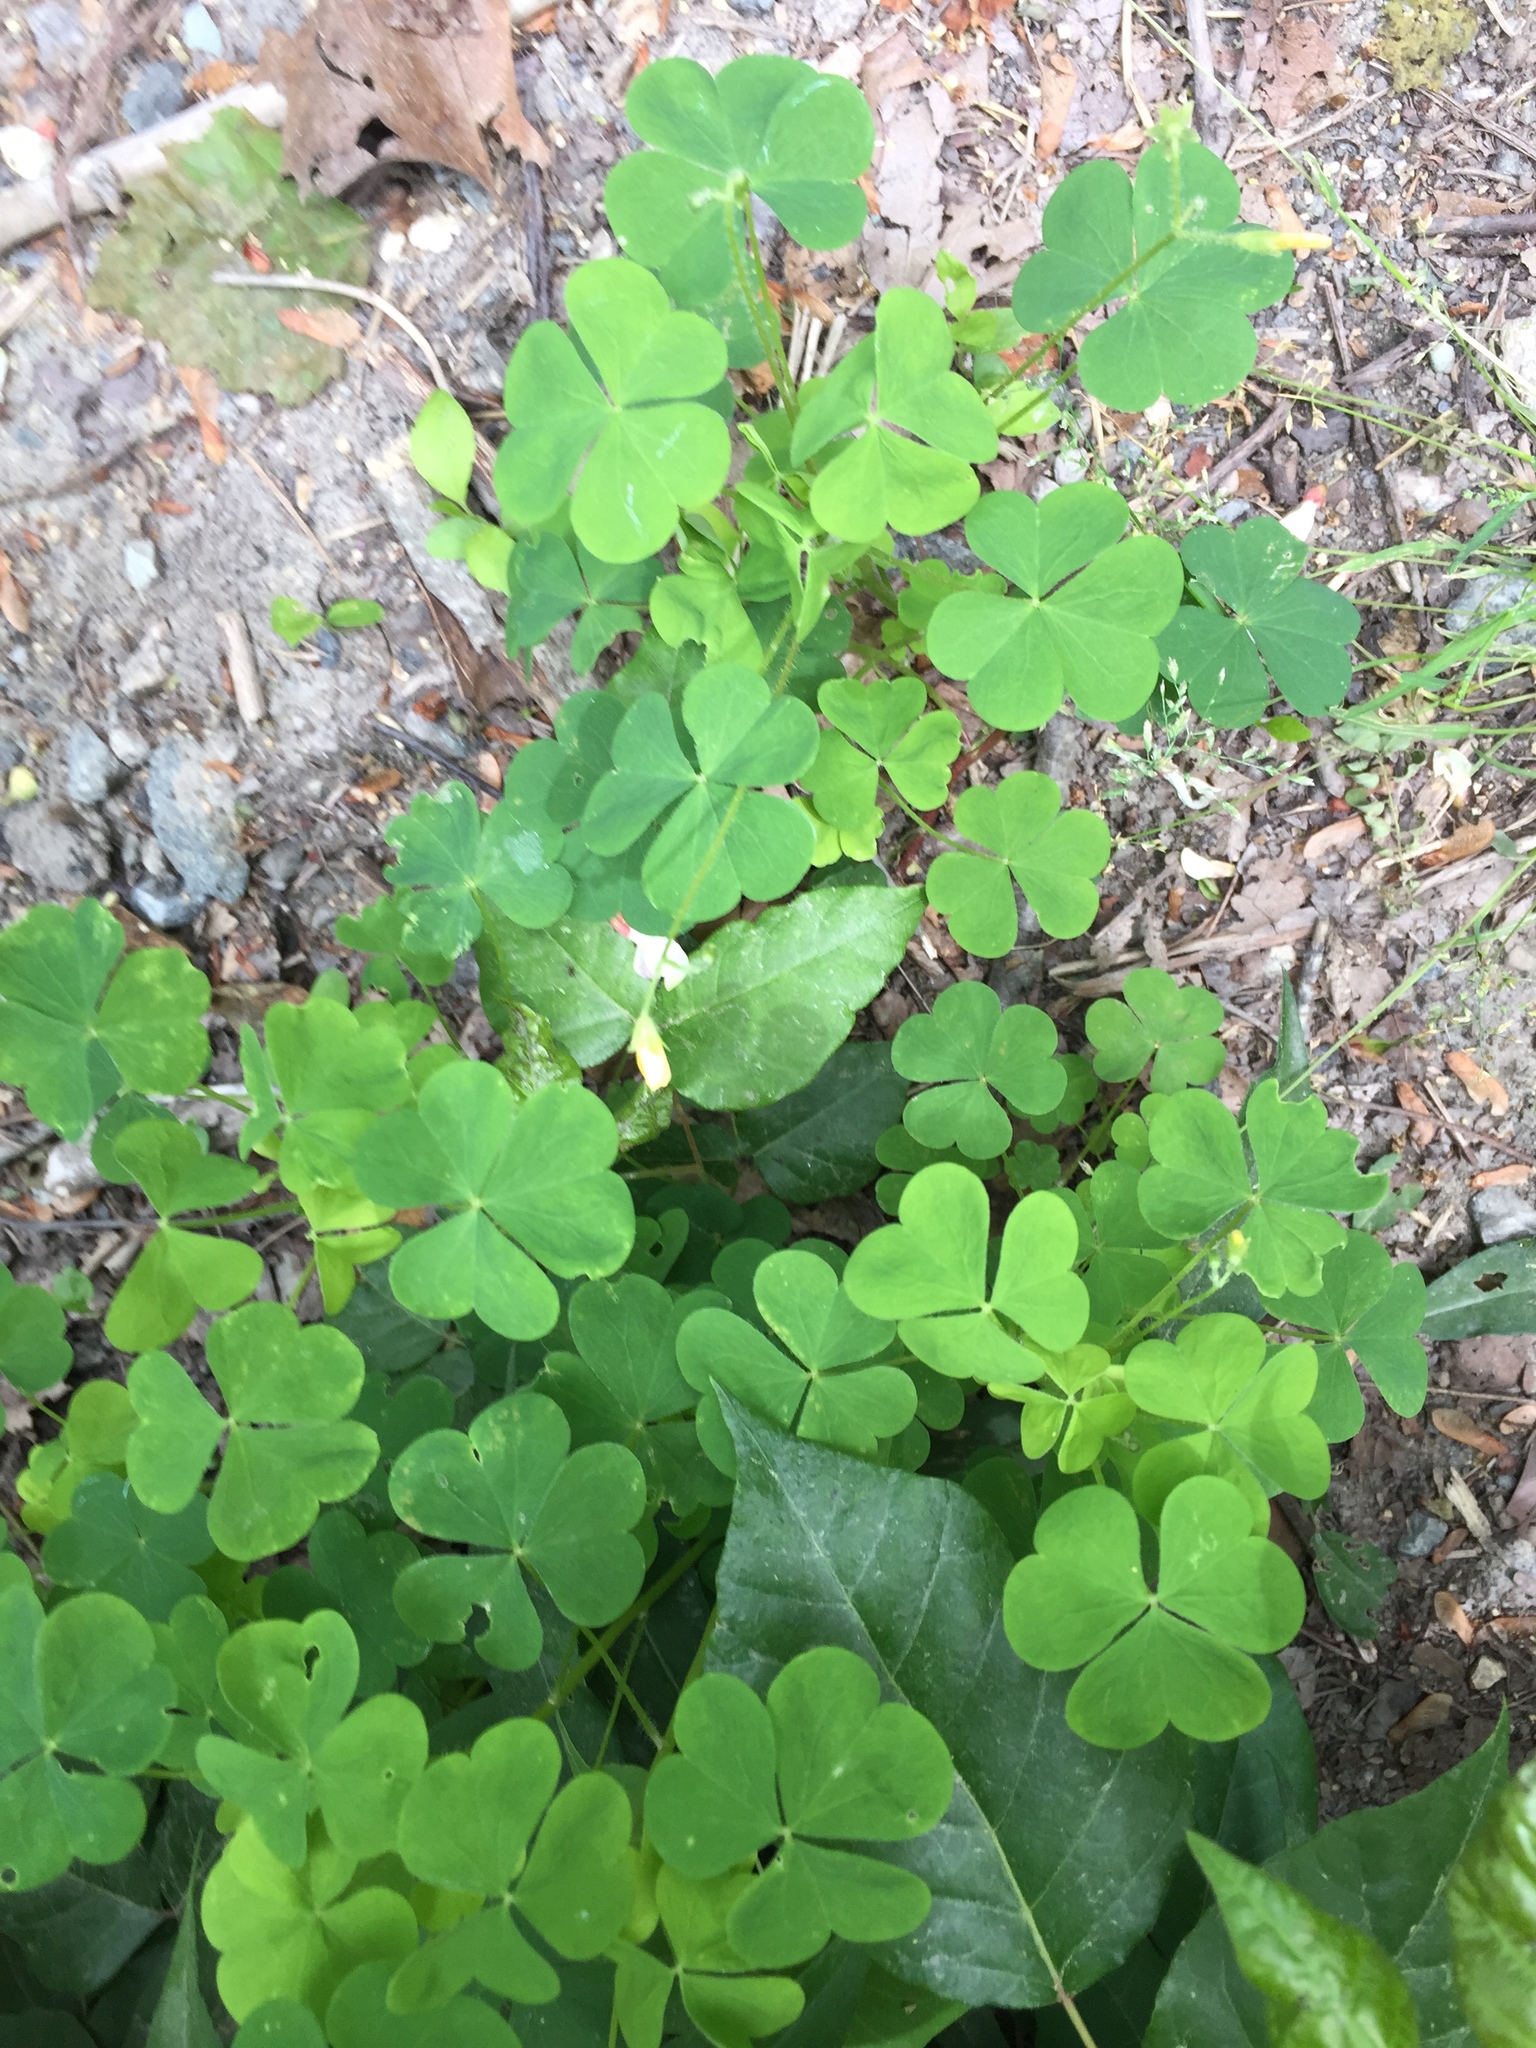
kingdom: Plantae
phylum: Tracheophyta
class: Magnoliopsida
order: Oxalidales
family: Oxalidaceae
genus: Oxalis
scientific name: Oxalis stricta
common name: Upright yellow-sorrel
